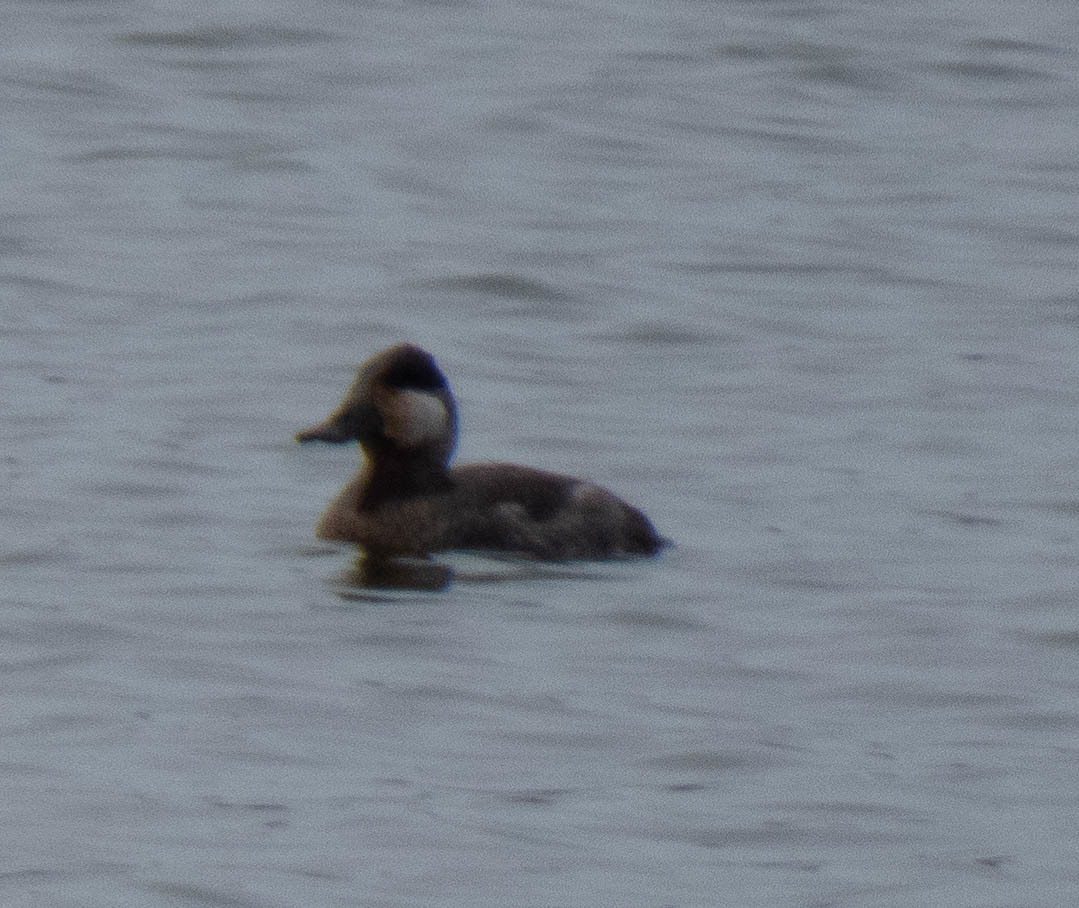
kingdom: Animalia
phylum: Chordata
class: Aves
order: Anseriformes
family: Anatidae
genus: Oxyura
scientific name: Oxyura jamaicensis
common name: Ruddy duck
